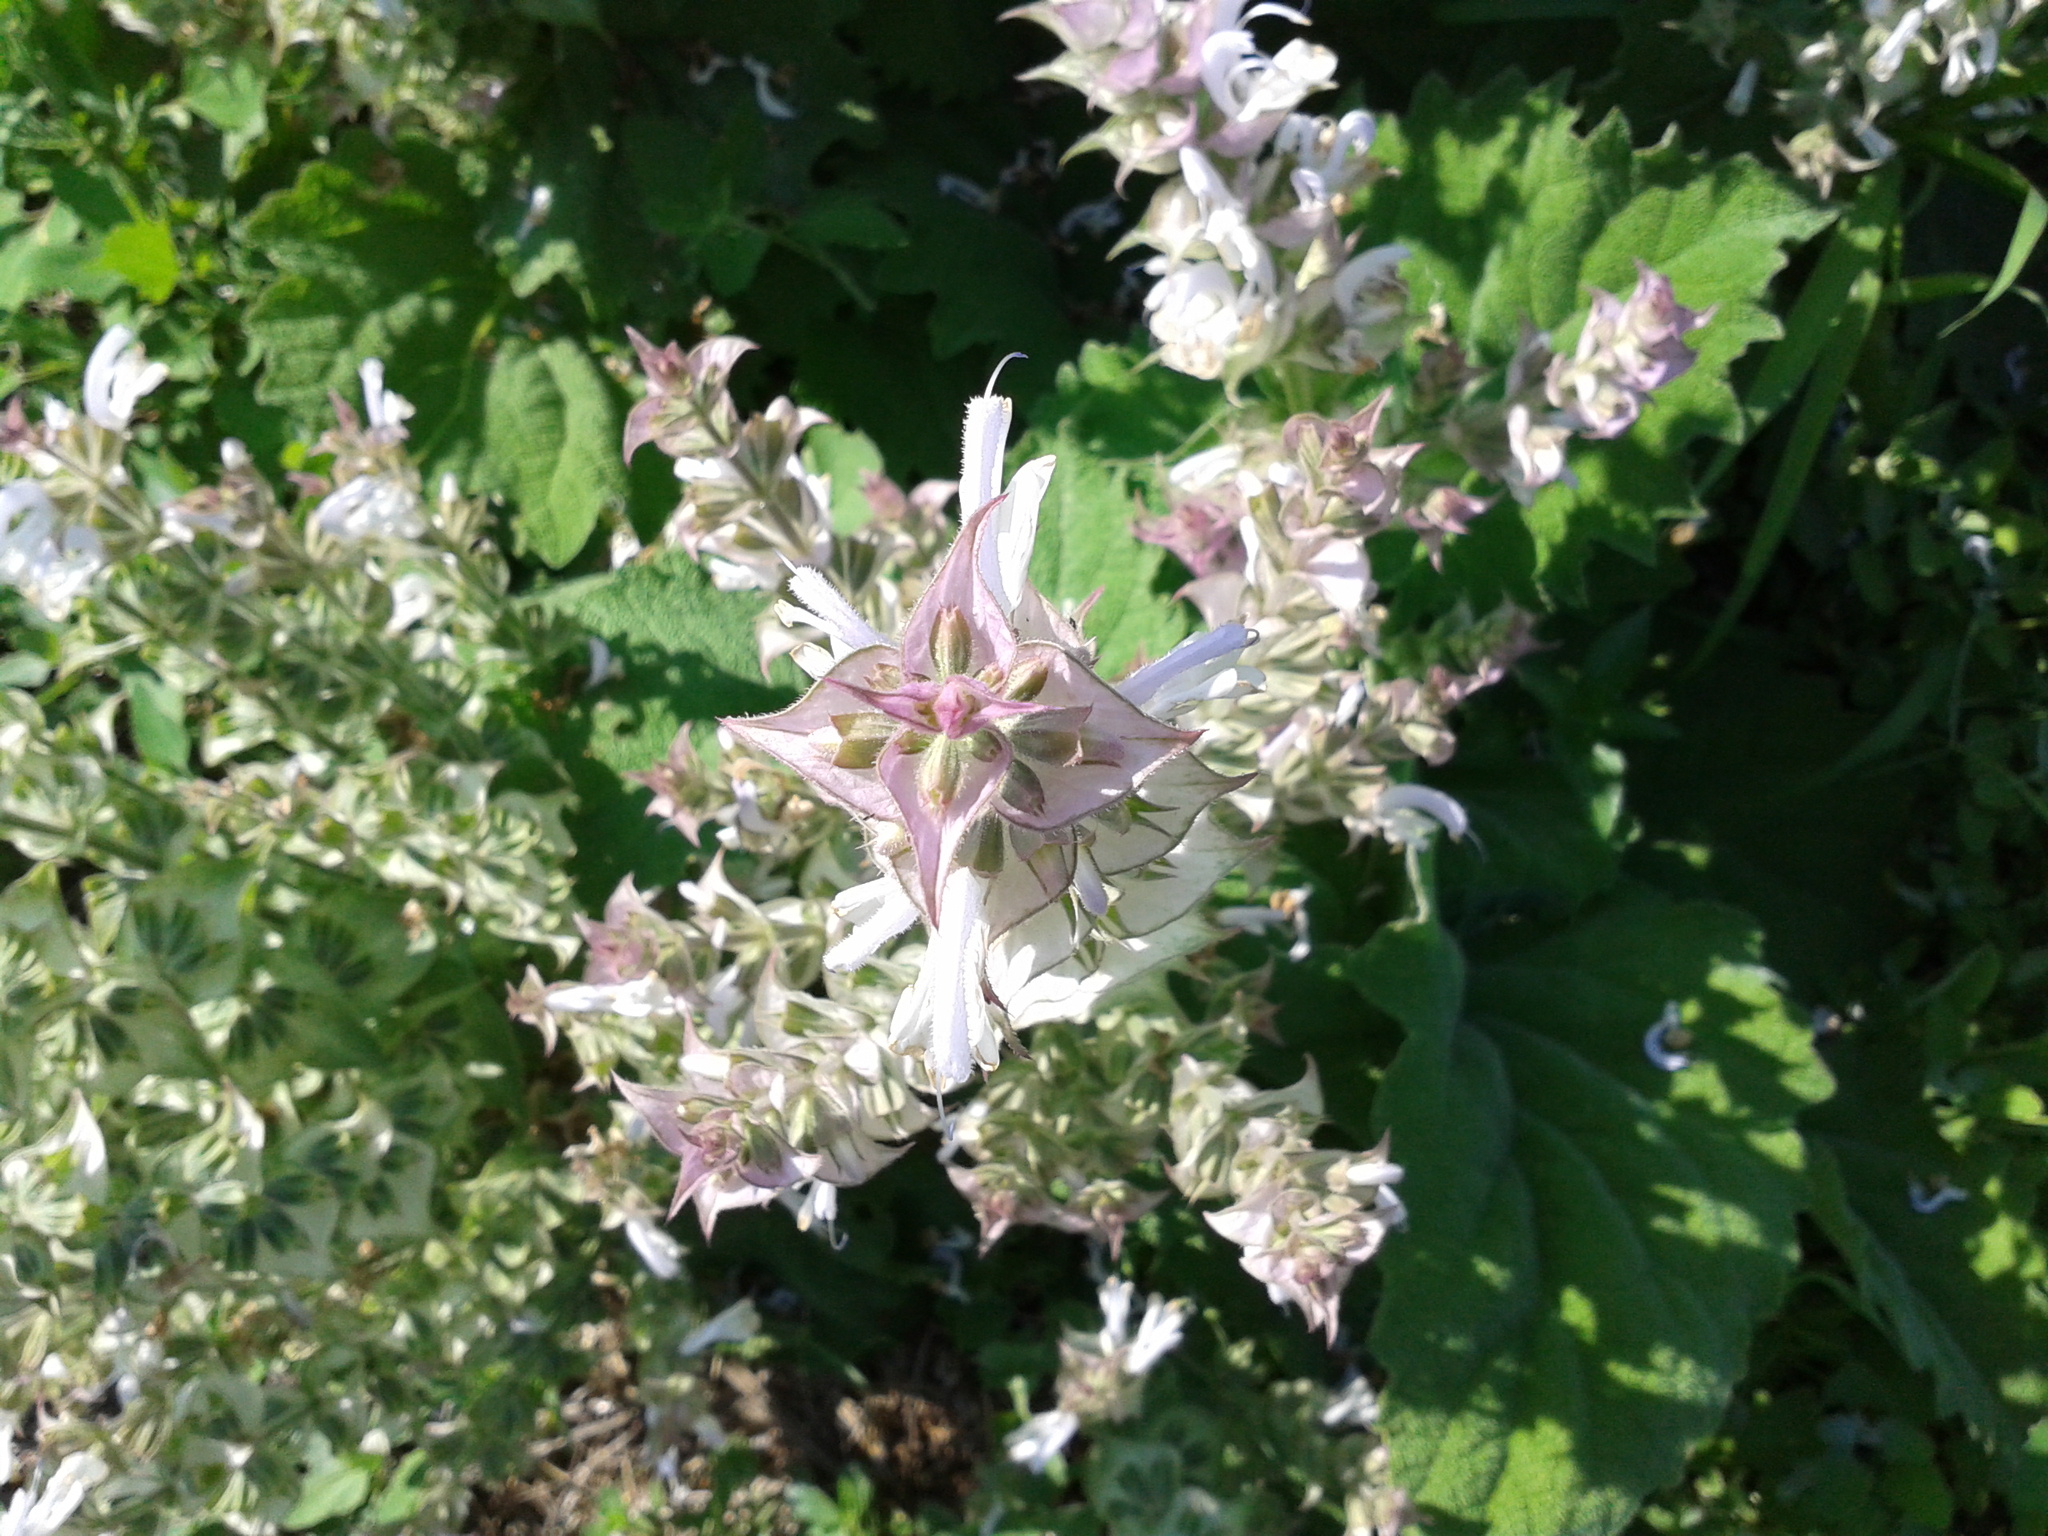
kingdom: Plantae
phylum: Tracheophyta
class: Magnoliopsida
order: Lamiales
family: Lamiaceae
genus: Salvia
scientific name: Salvia sclarea
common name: Clary
